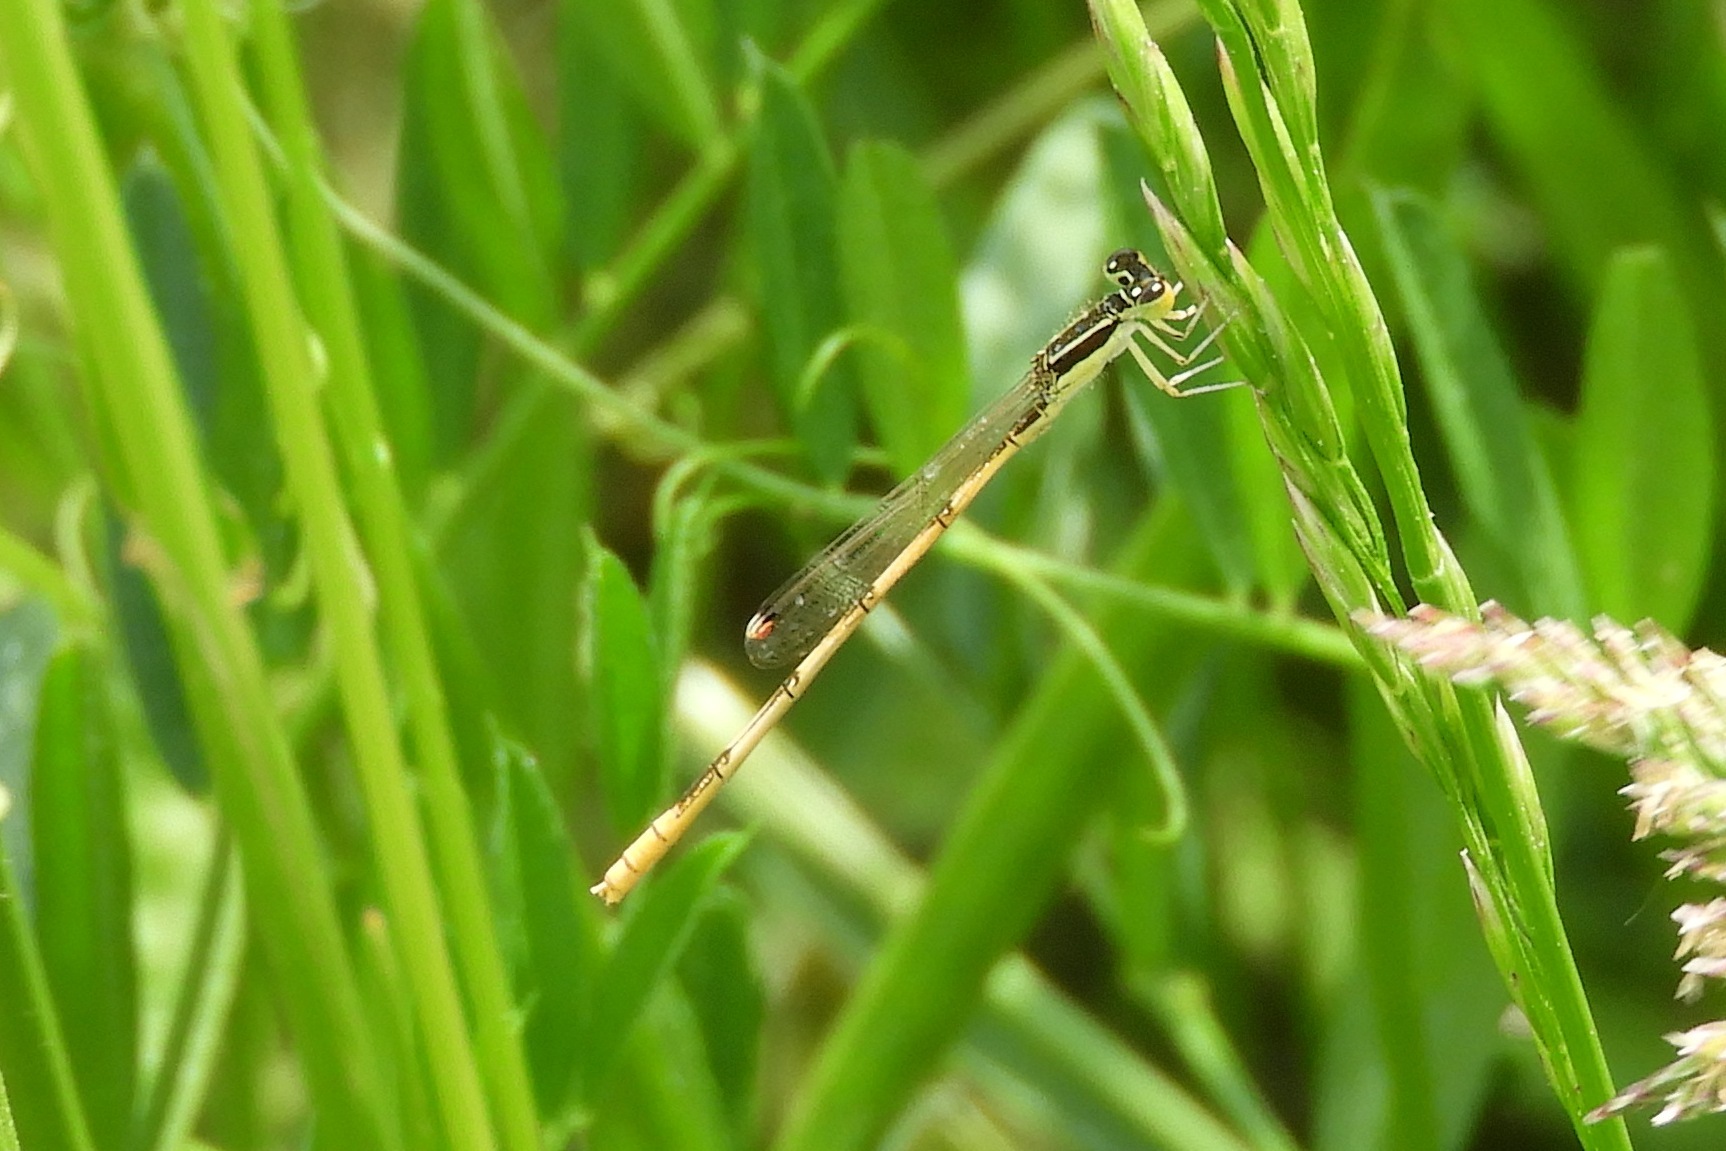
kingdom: Animalia
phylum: Arthropoda
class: Insecta
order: Odonata
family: Coenagrionidae
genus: Ischnura
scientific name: Ischnura hastata
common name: Citrine forktail
